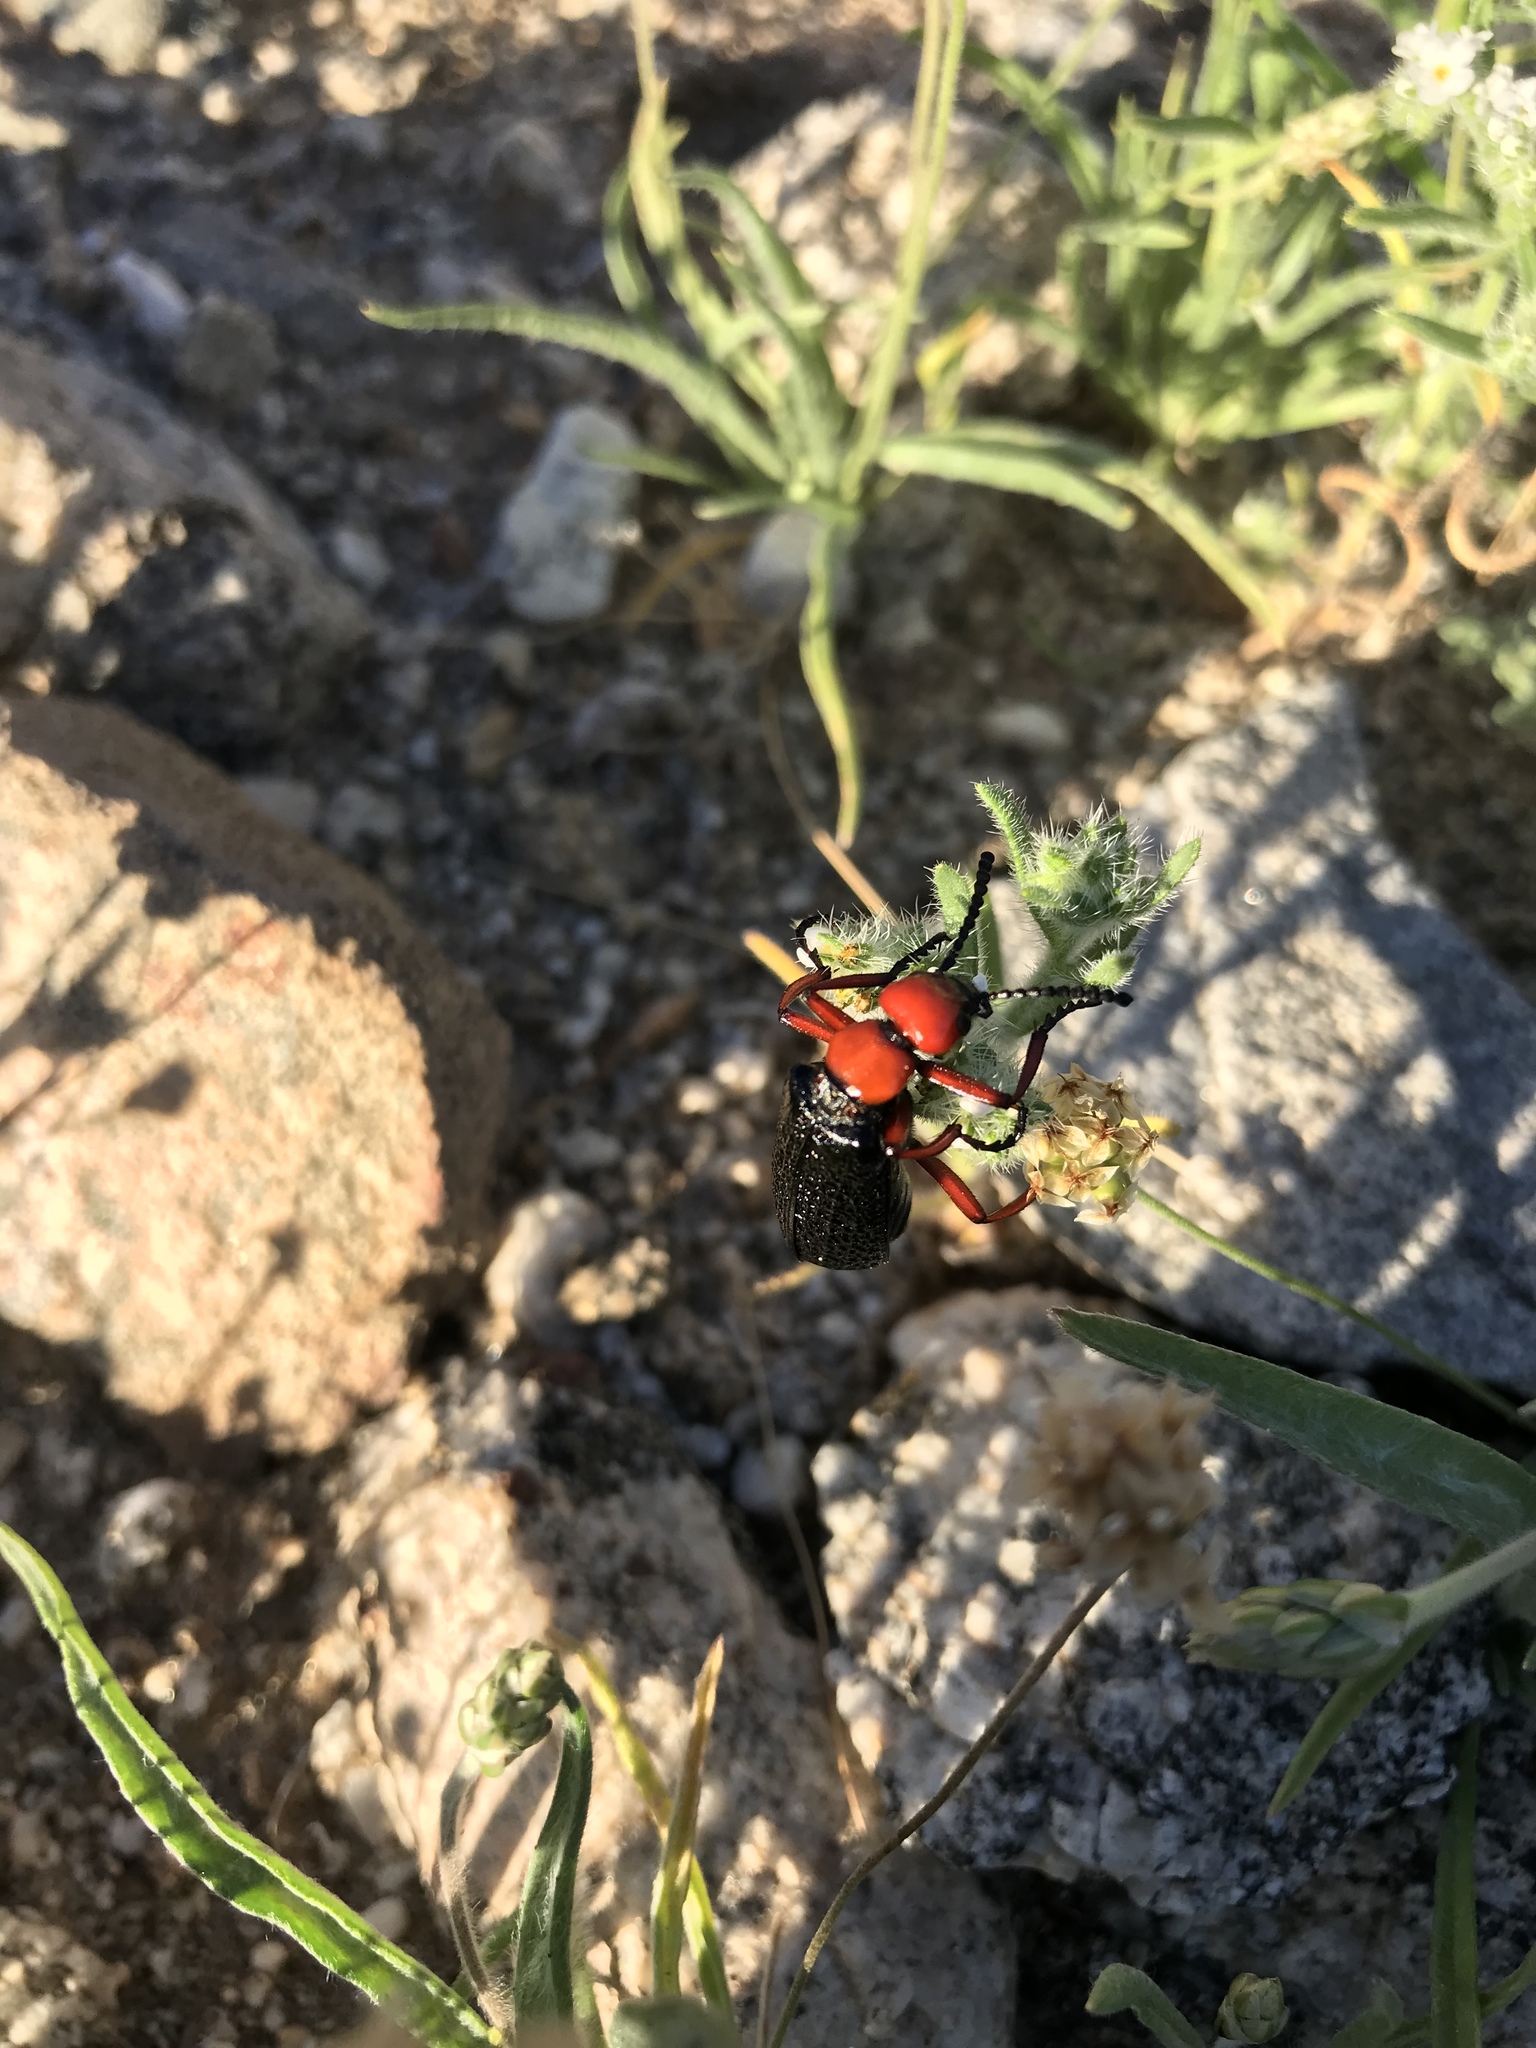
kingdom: Animalia
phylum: Arthropoda
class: Insecta
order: Coleoptera
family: Meloidae
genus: Lytta
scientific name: Lytta magister
